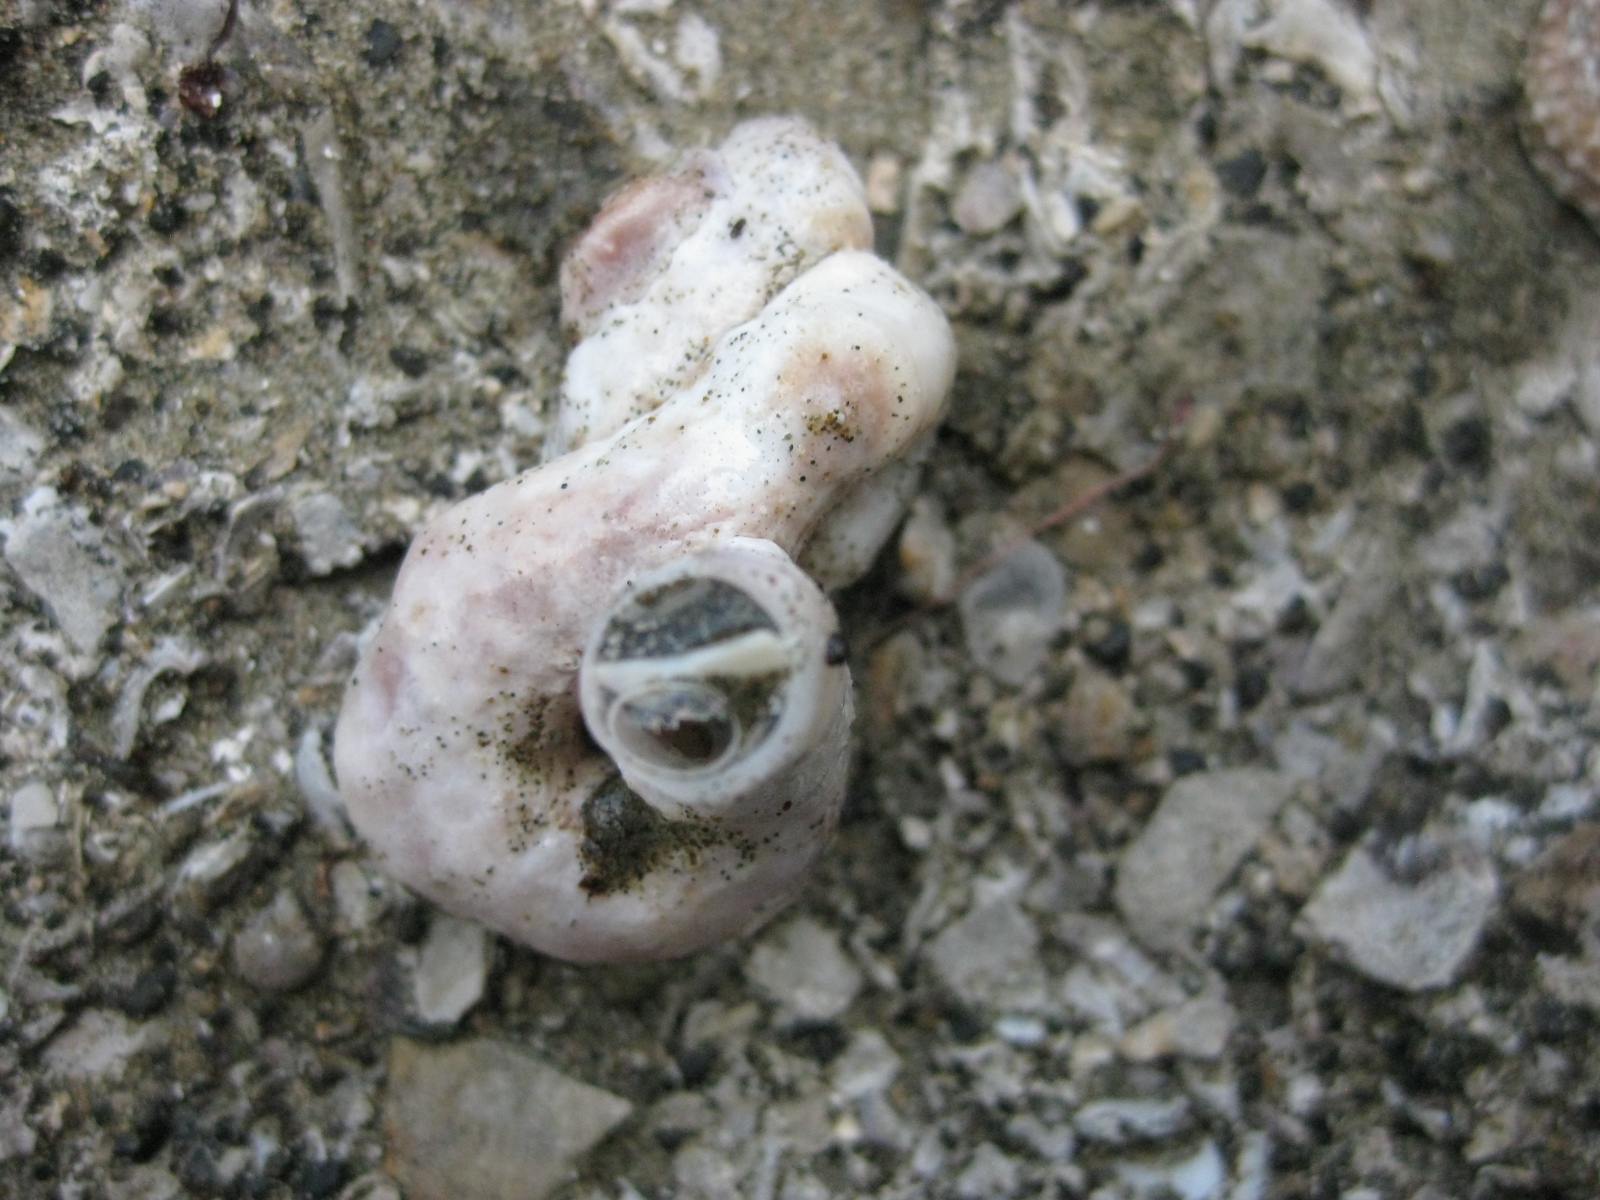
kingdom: Animalia
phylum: Mollusca
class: Gastropoda
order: Littorinimorpha
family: Vermetidae
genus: Thylacodes
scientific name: Thylacodes aotearoicus
